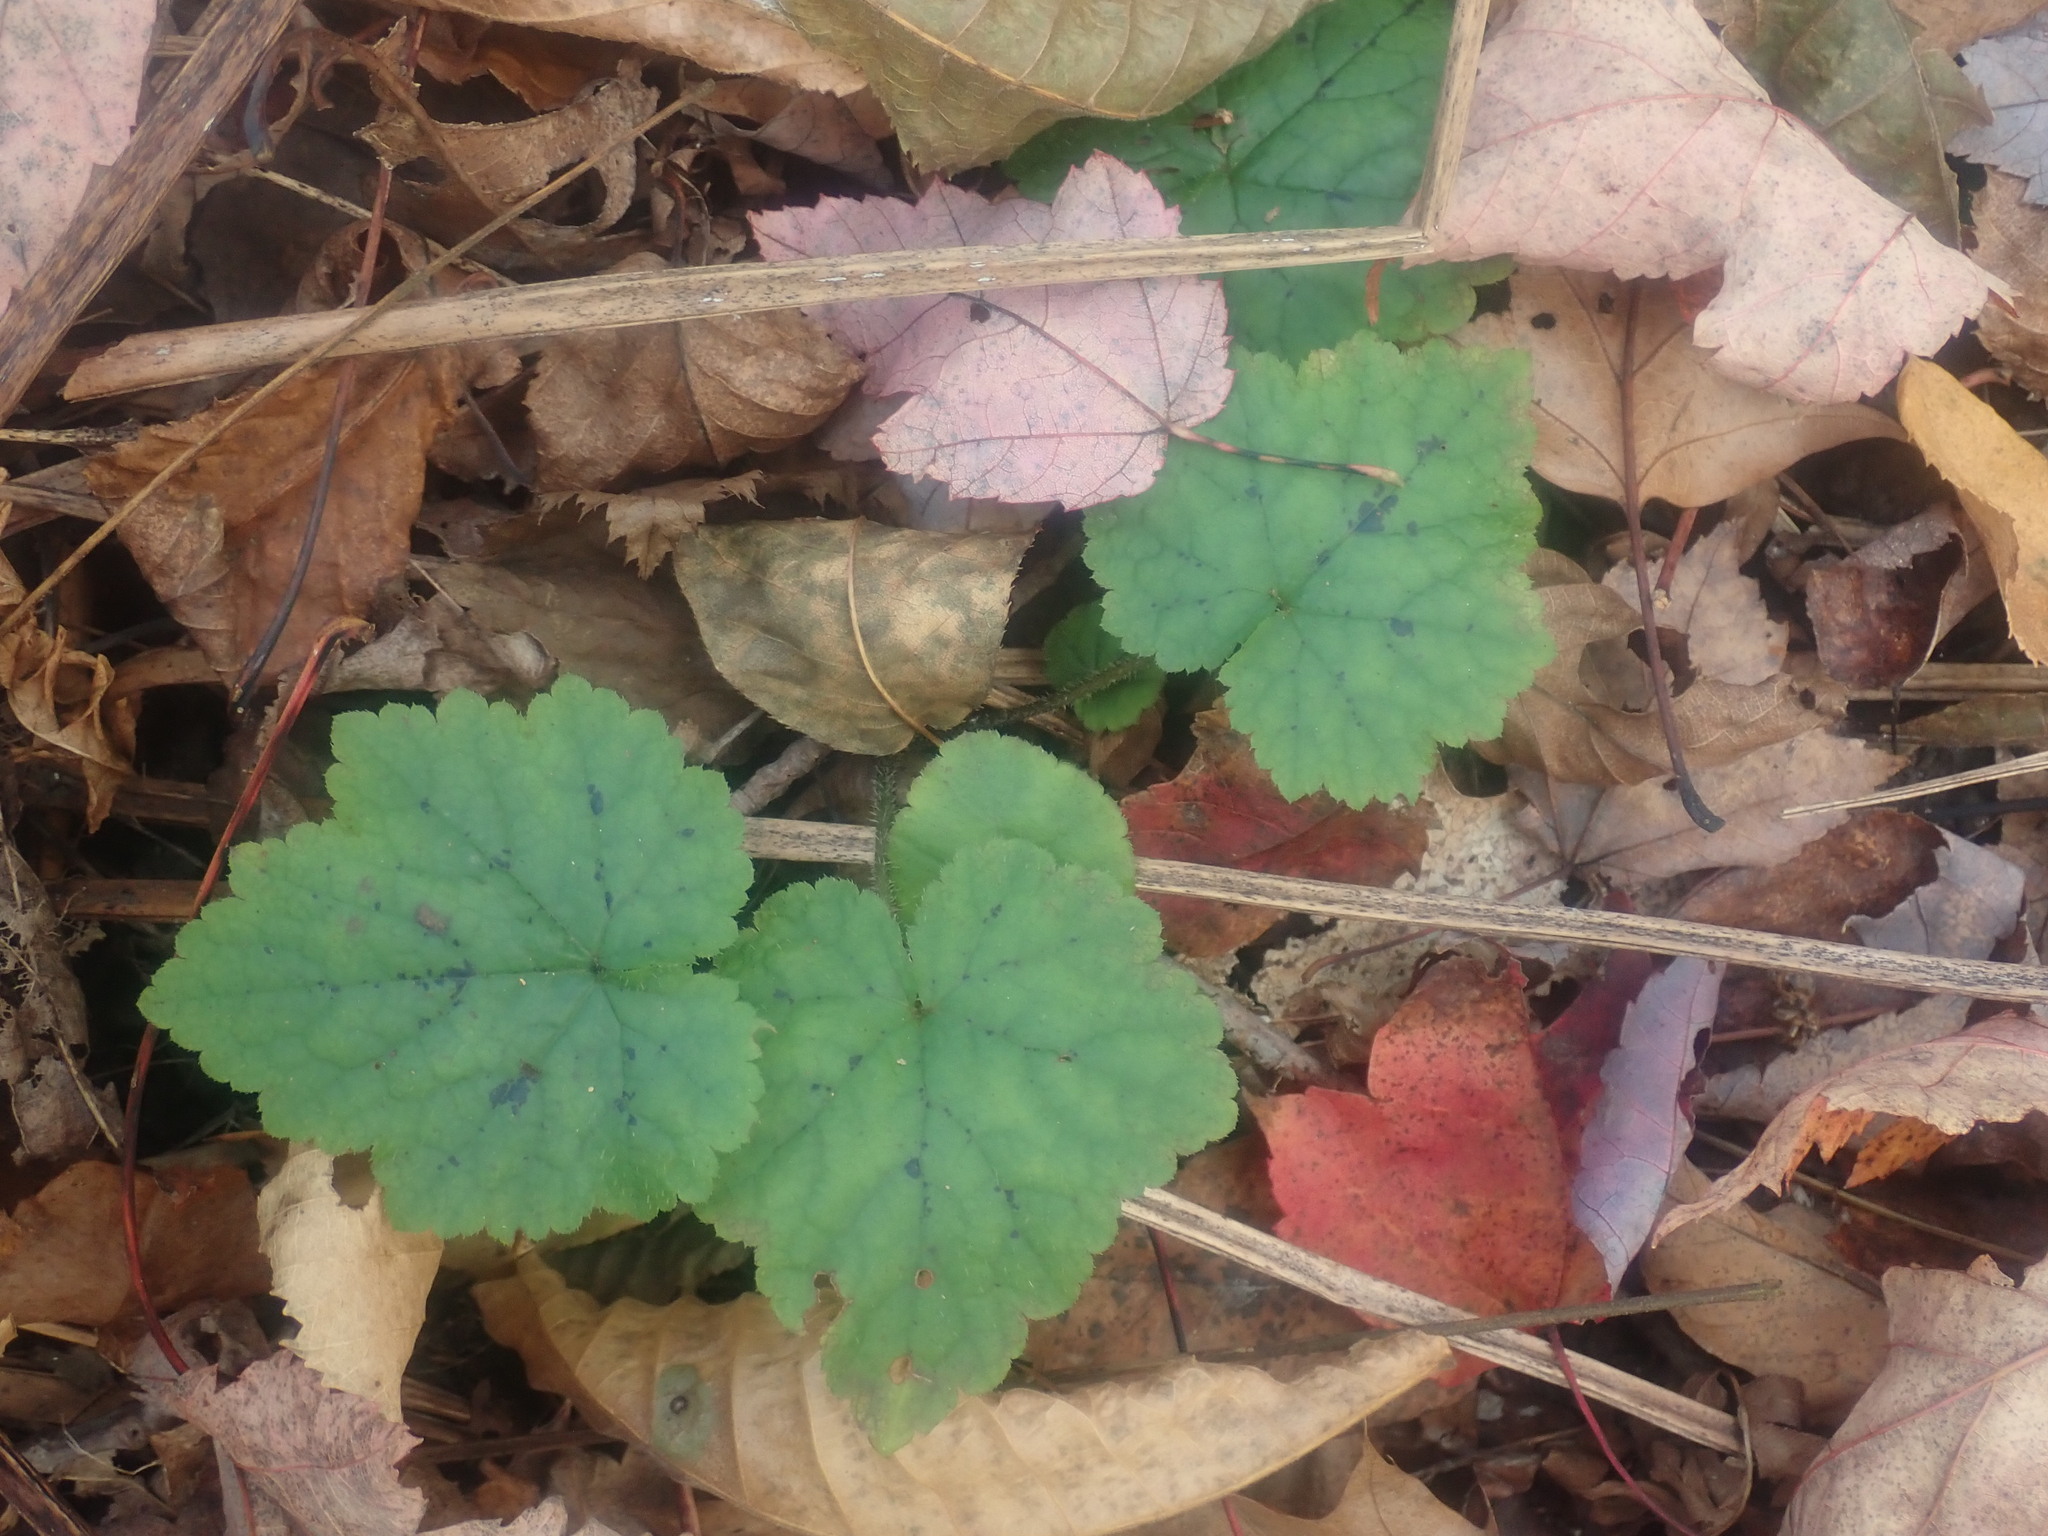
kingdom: Plantae
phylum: Tracheophyta
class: Magnoliopsida
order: Saxifragales
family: Saxifragaceae
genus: Tiarella
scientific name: Tiarella stolonifera
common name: Stoloniferous foamflower
